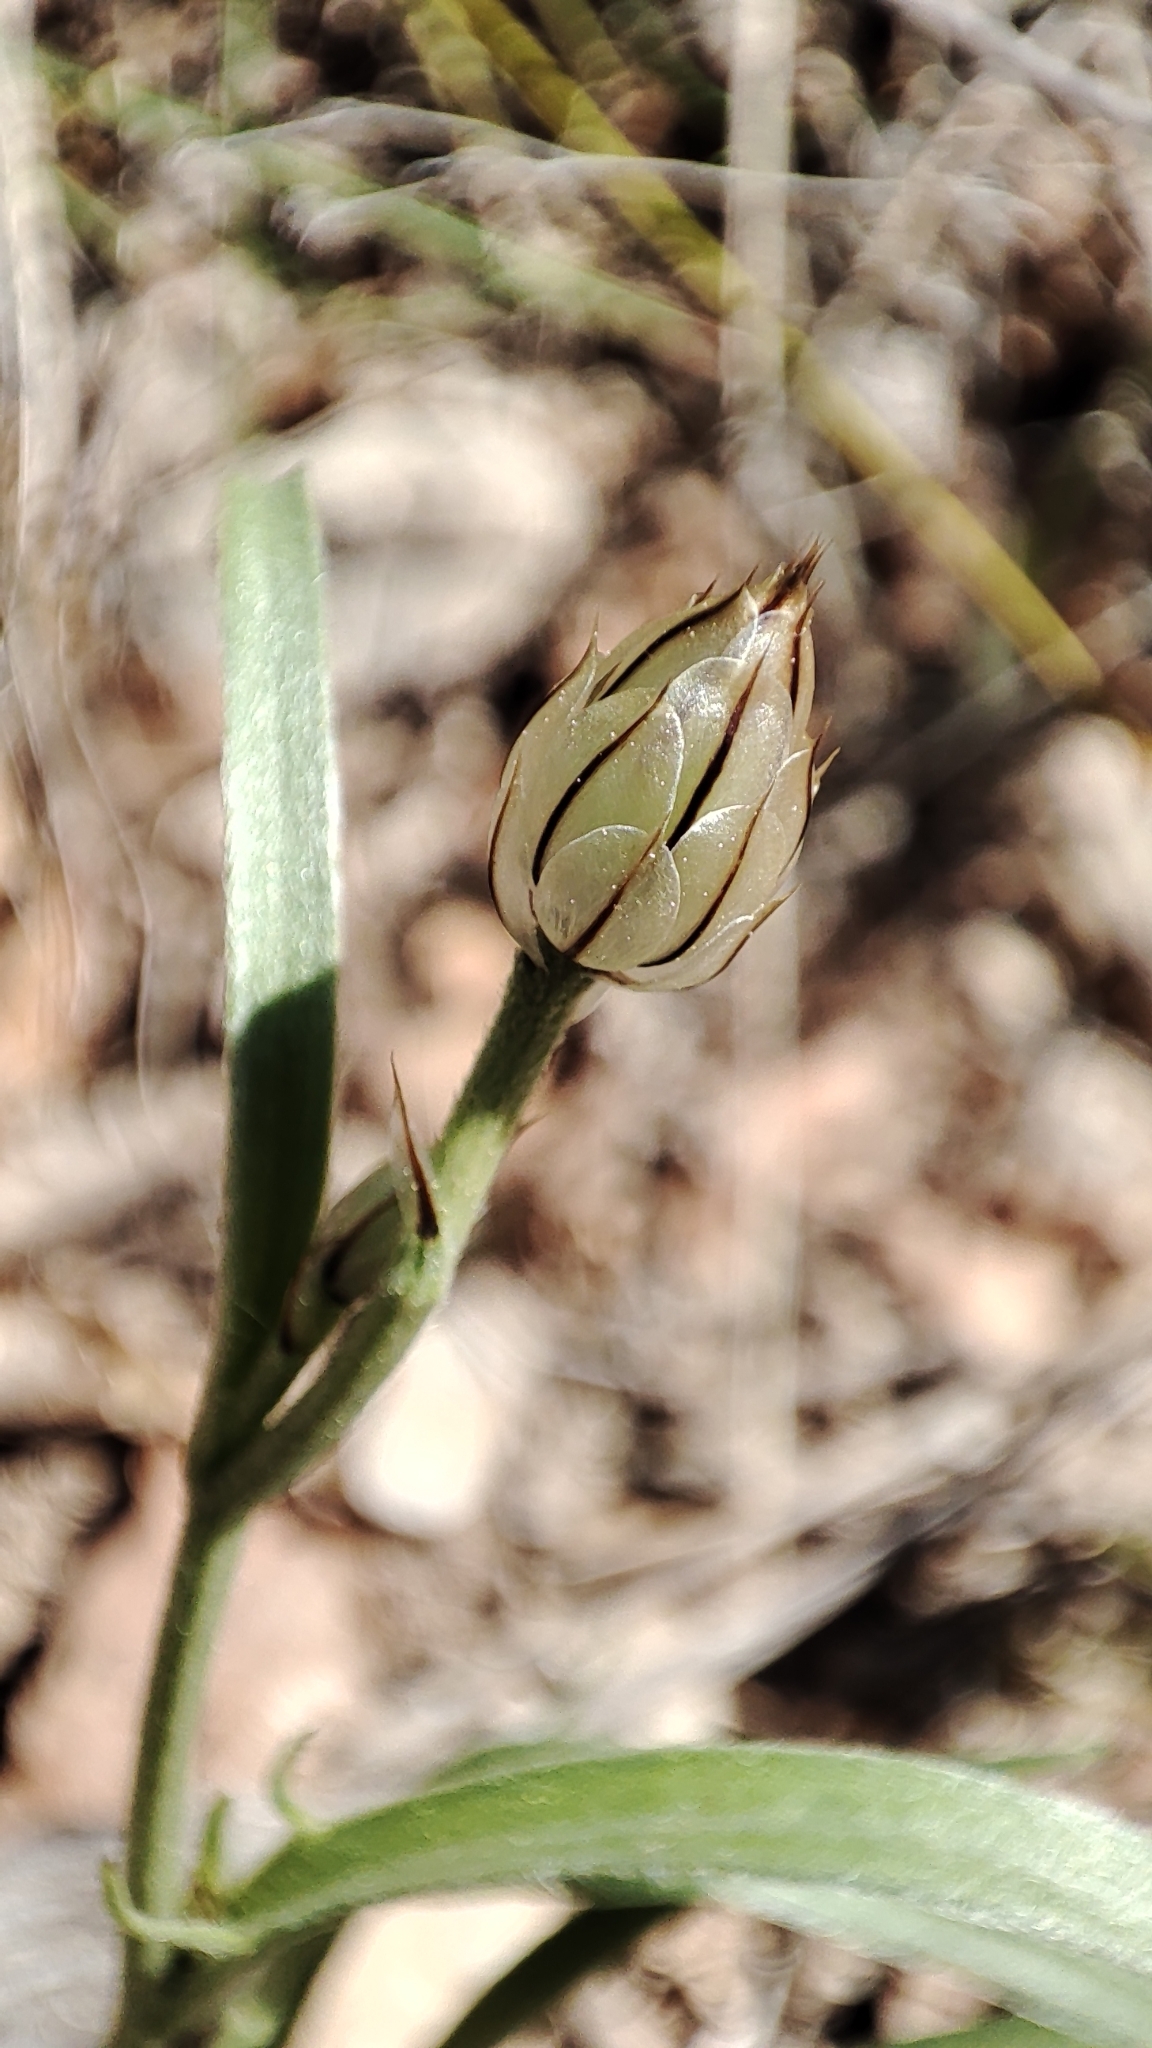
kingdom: Plantae
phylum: Tracheophyta
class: Magnoliopsida
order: Asterales
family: Asteraceae
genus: Catananche
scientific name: Catananche caerulea
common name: Blue cupidone
